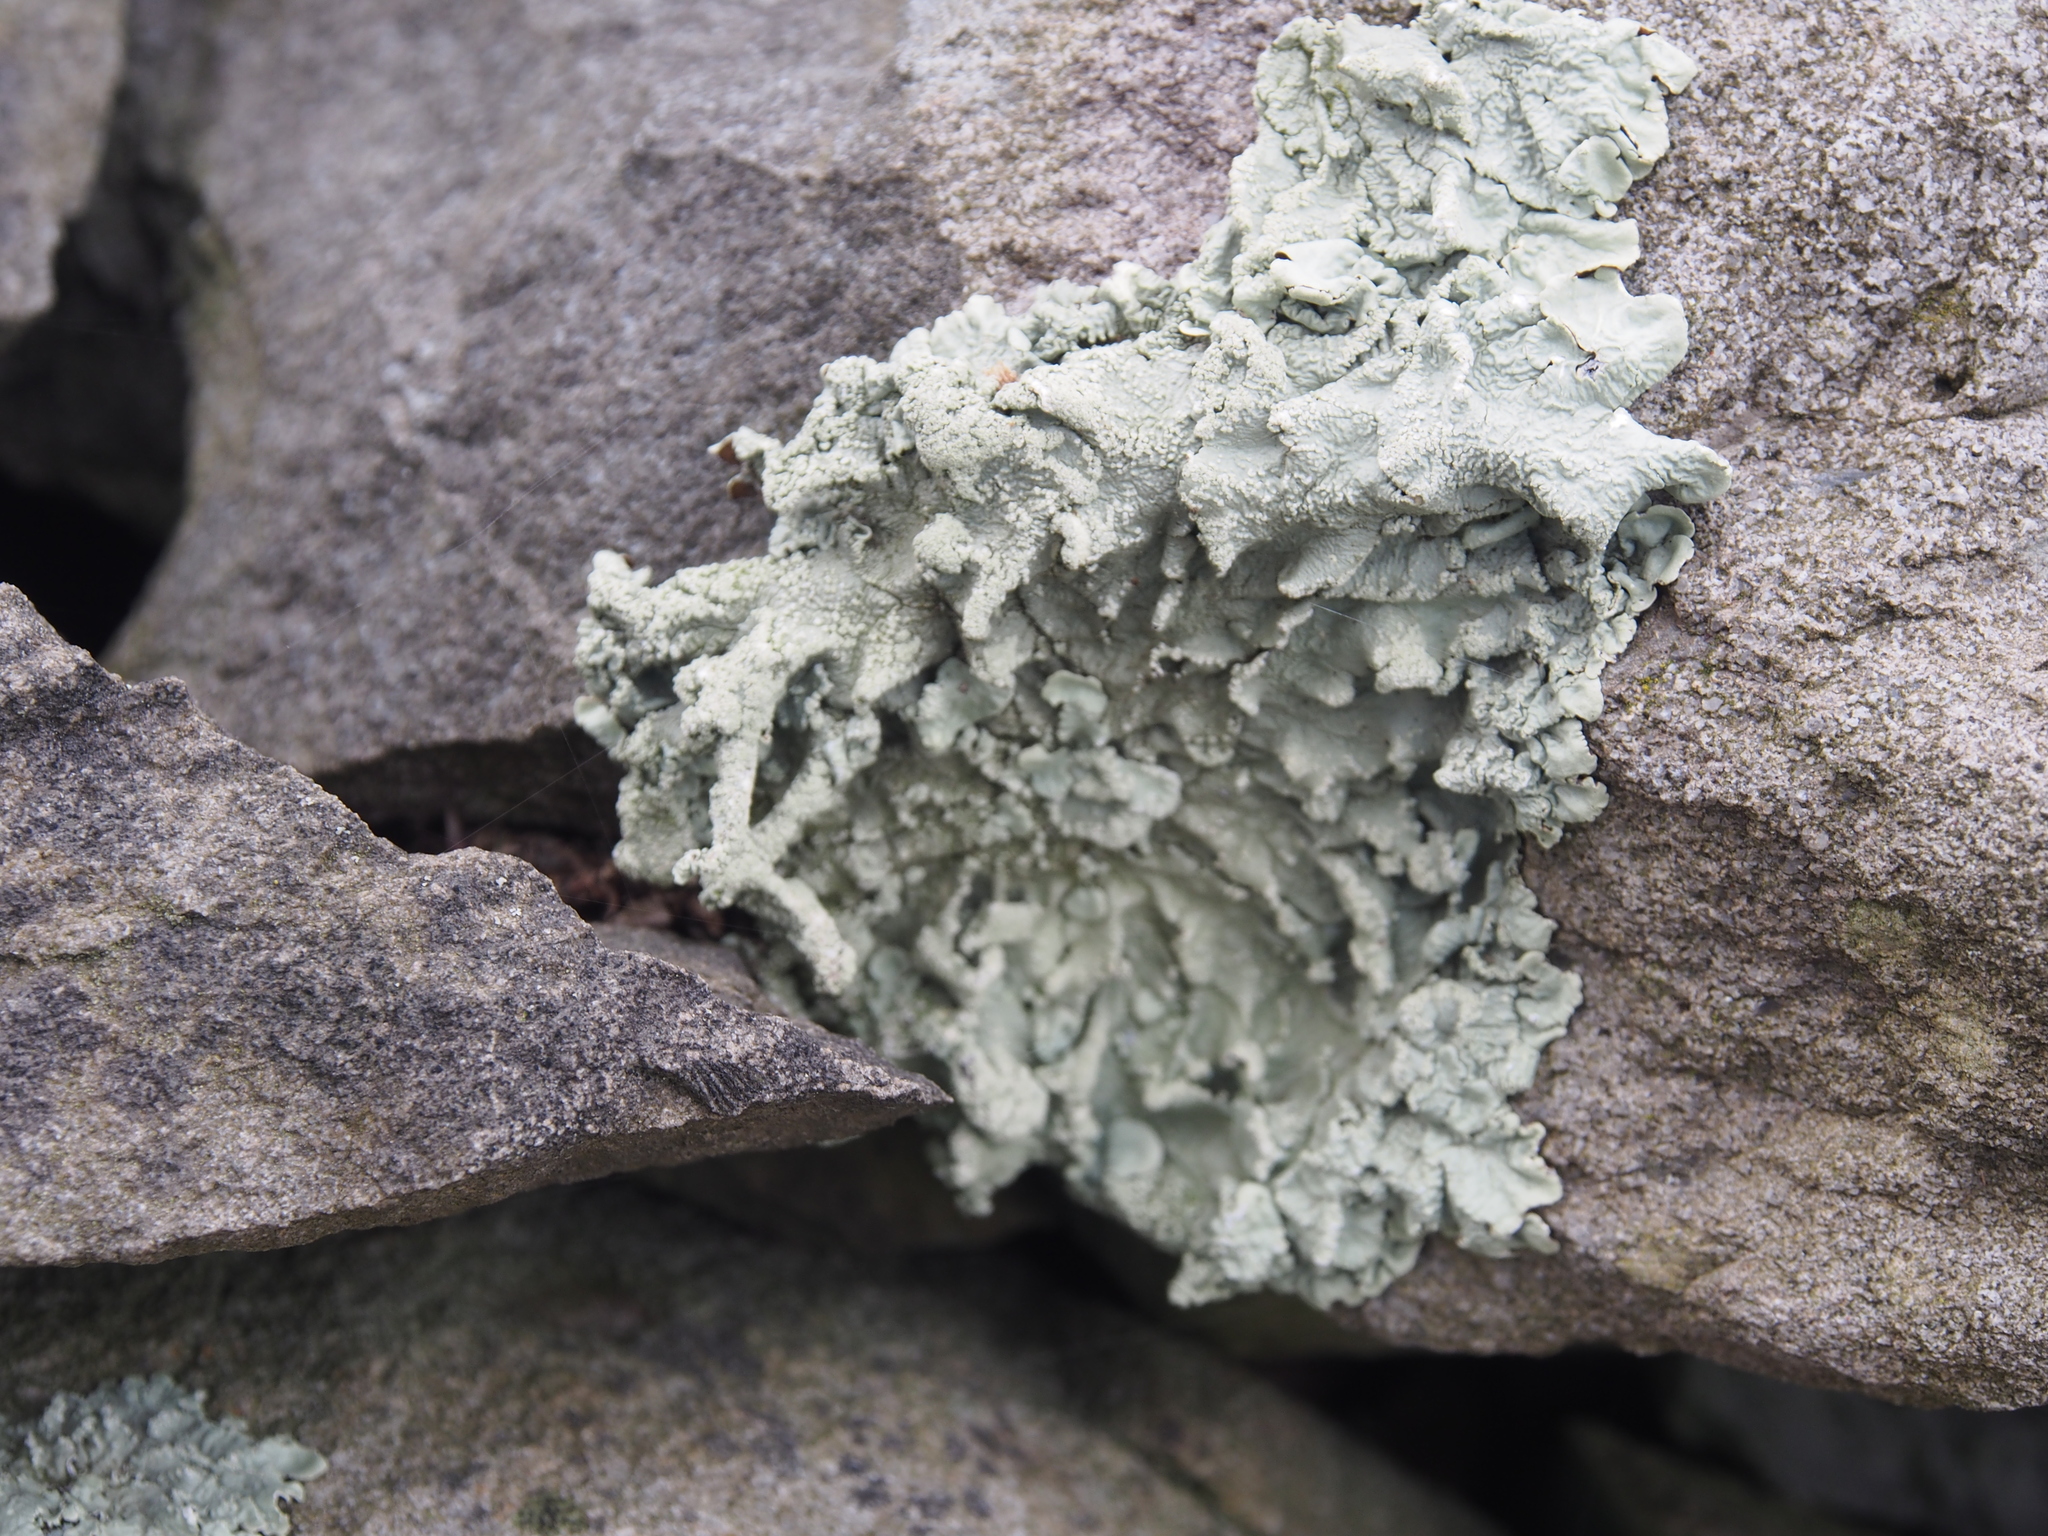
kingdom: Fungi
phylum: Ascomycota
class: Lecanoromycetes
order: Lecanorales
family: Parmeliaceae
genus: Flavoparmelia
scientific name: Flavoparmelia caperata
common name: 40-mile per hour lichen
